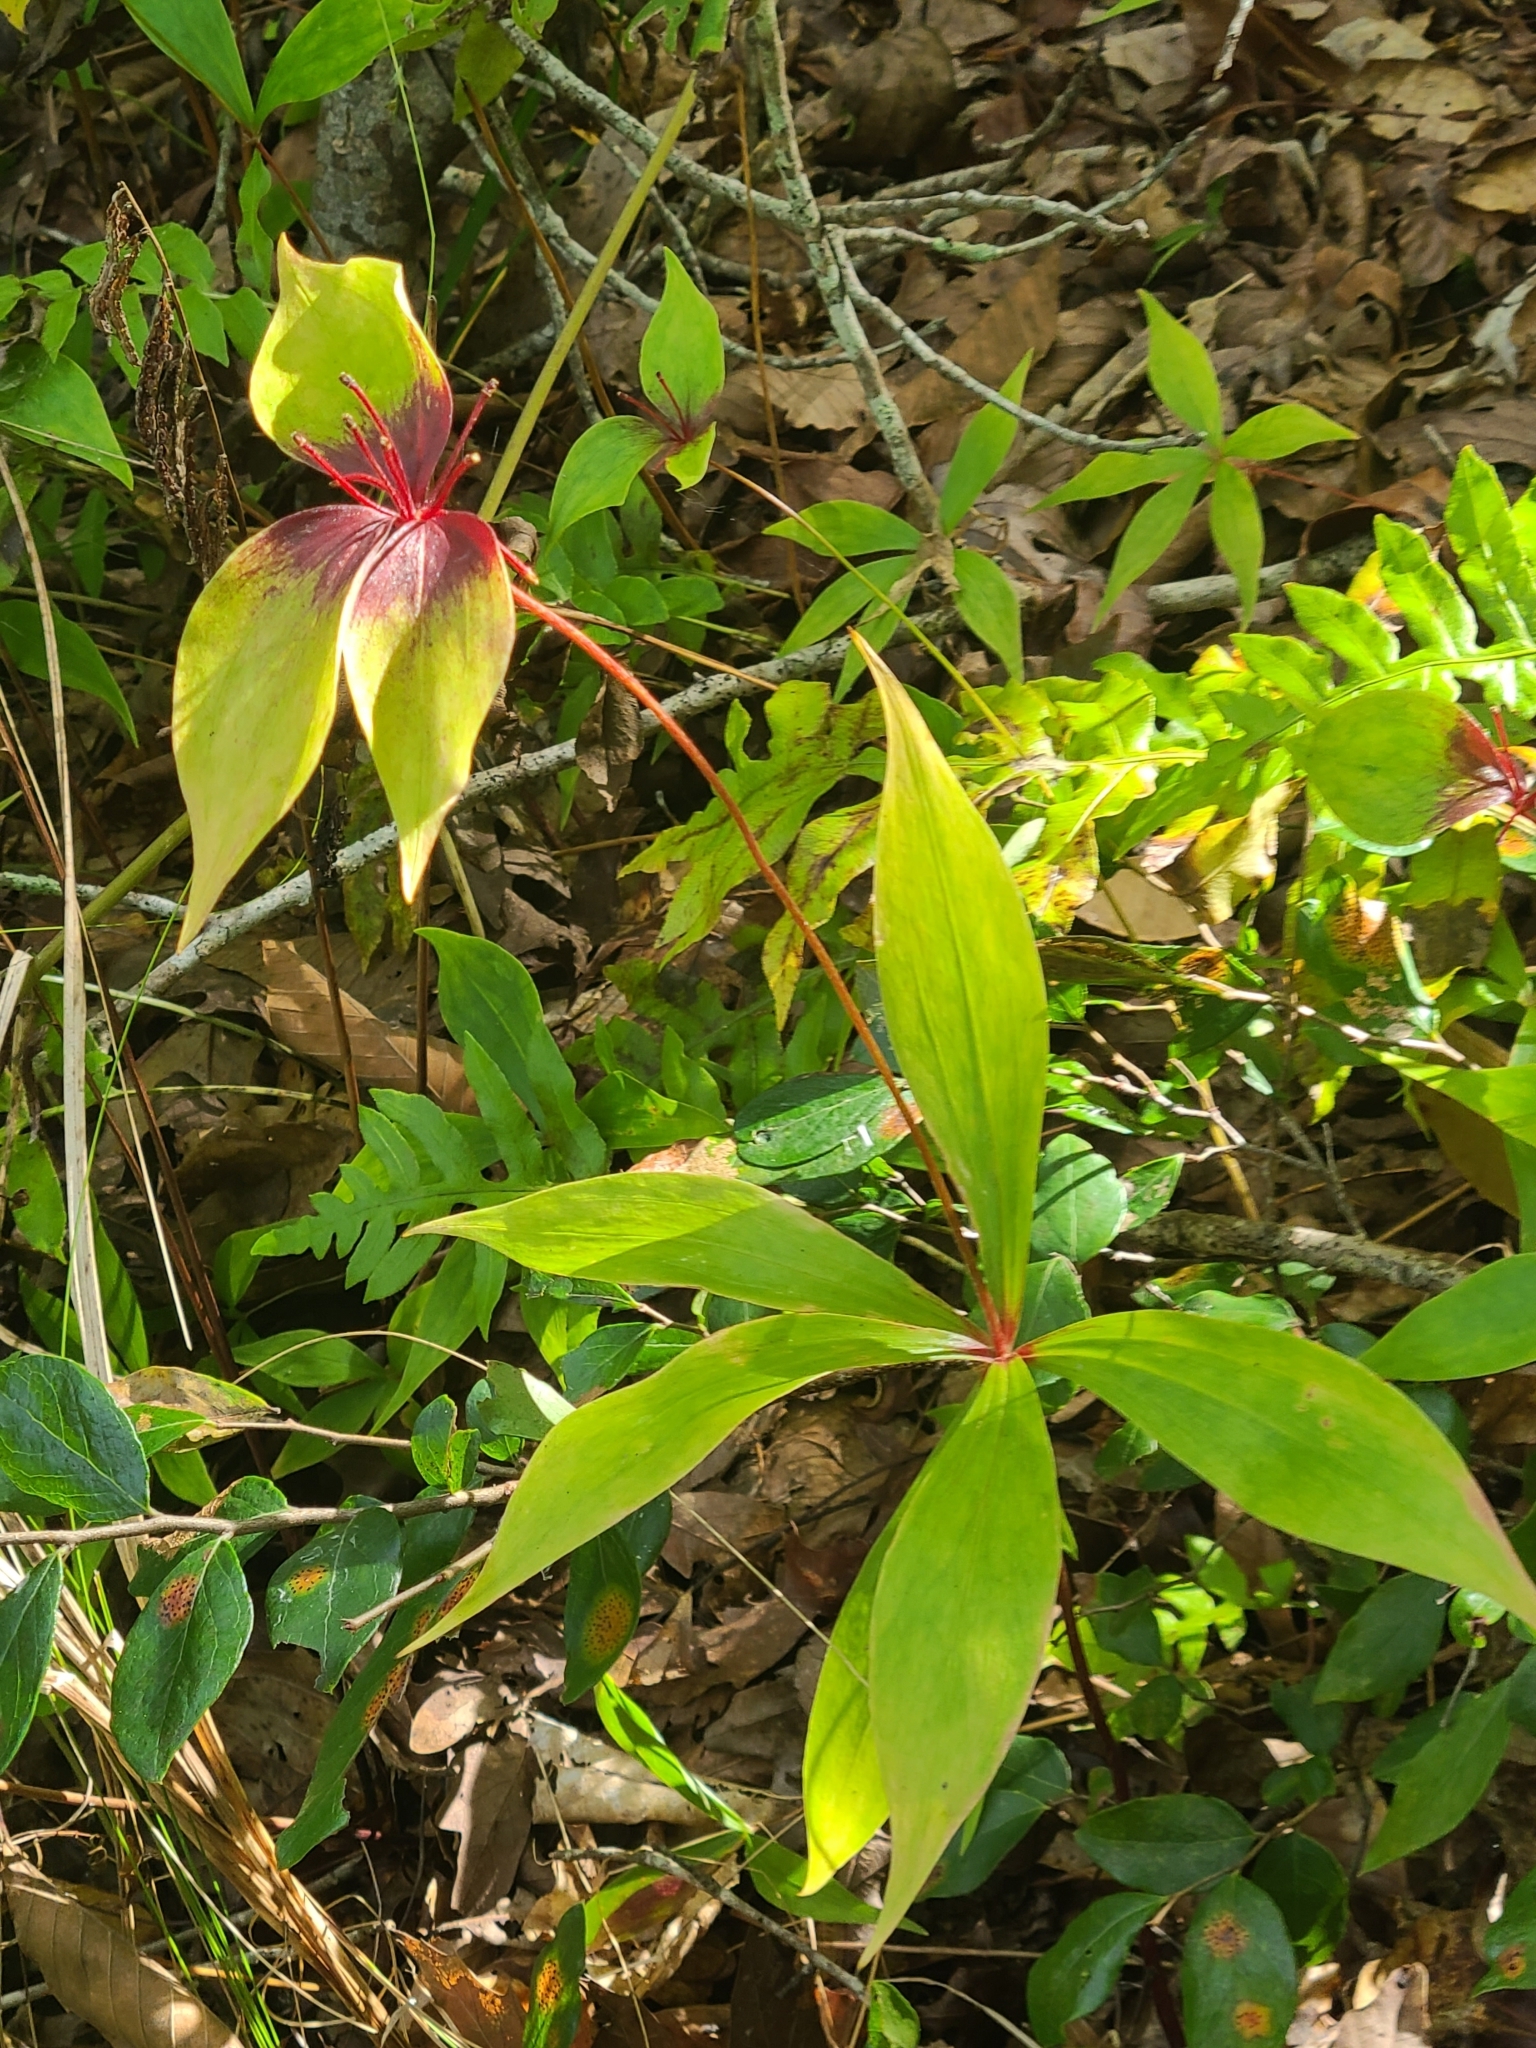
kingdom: Plantae
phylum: Tracheophyta
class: Liliopsida
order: Liliales
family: Liliaceae
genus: Medeola
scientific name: Medeola virginiana
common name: Indian cucumber-root
